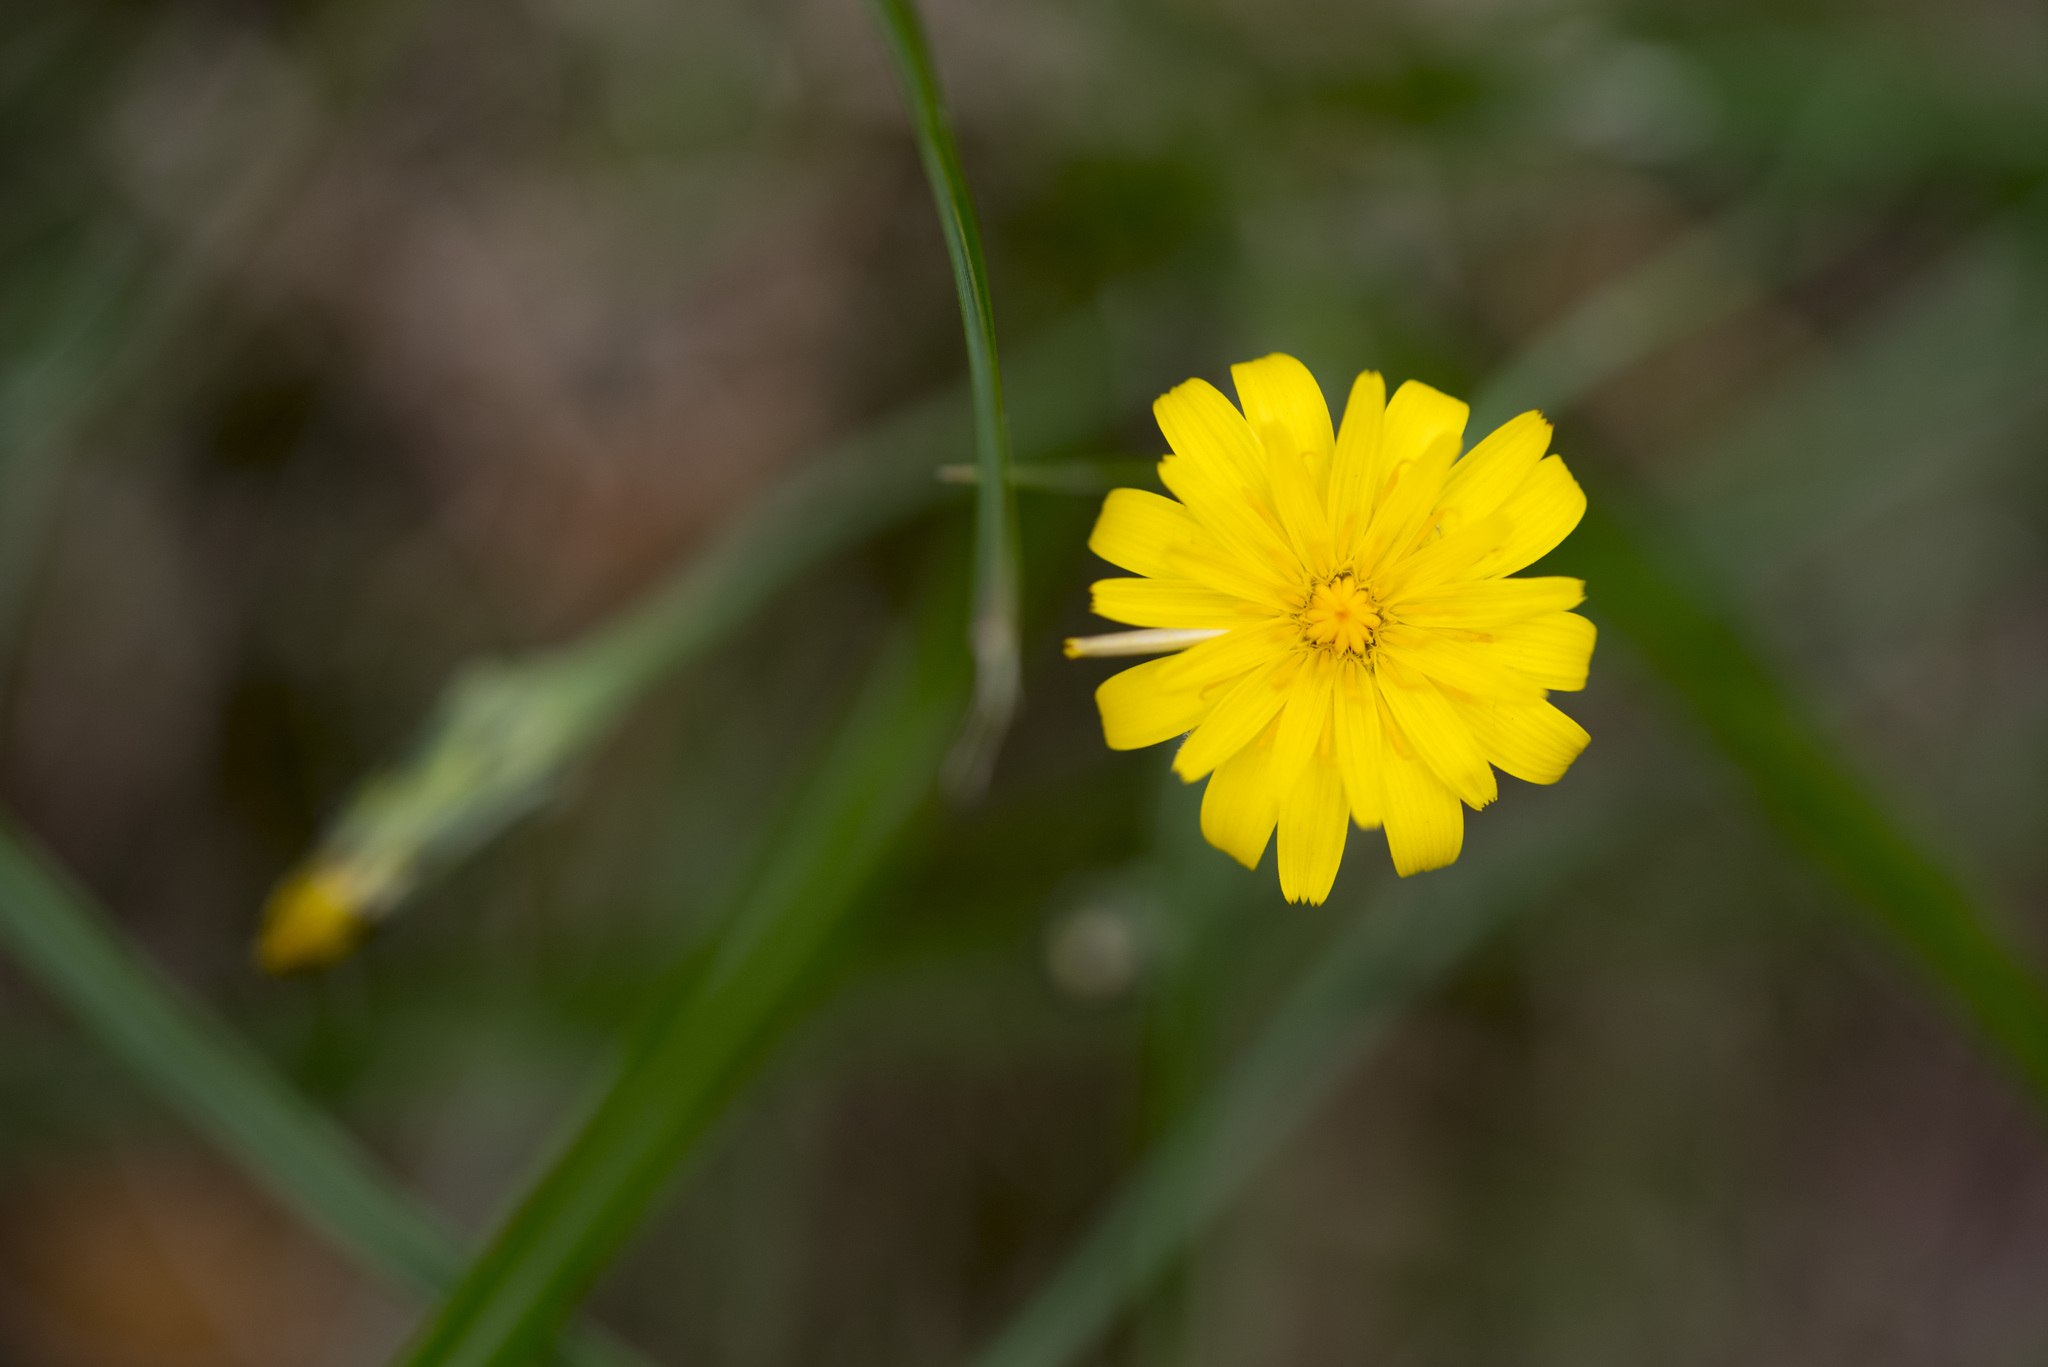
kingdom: Plantae
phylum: Tracheophyta
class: Magnoliopsida
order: Asterales
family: Asteraceae
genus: Hypochaeris
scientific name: Hypochaeris radicata
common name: Flatweed
